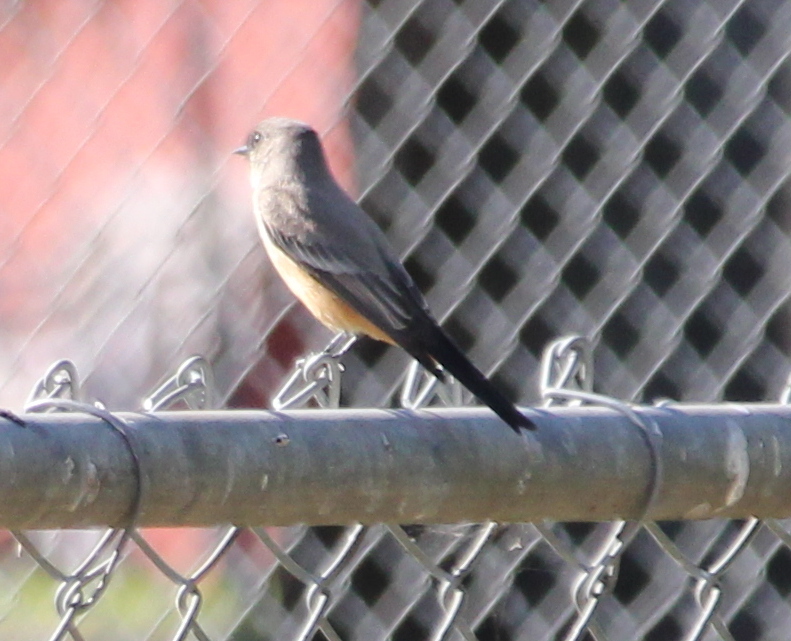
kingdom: Animalia
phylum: Chordata
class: Aves
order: Passeriformes
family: Tyrannidae
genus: Sayornis
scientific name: Sayornis saya
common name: Say's phoebe
